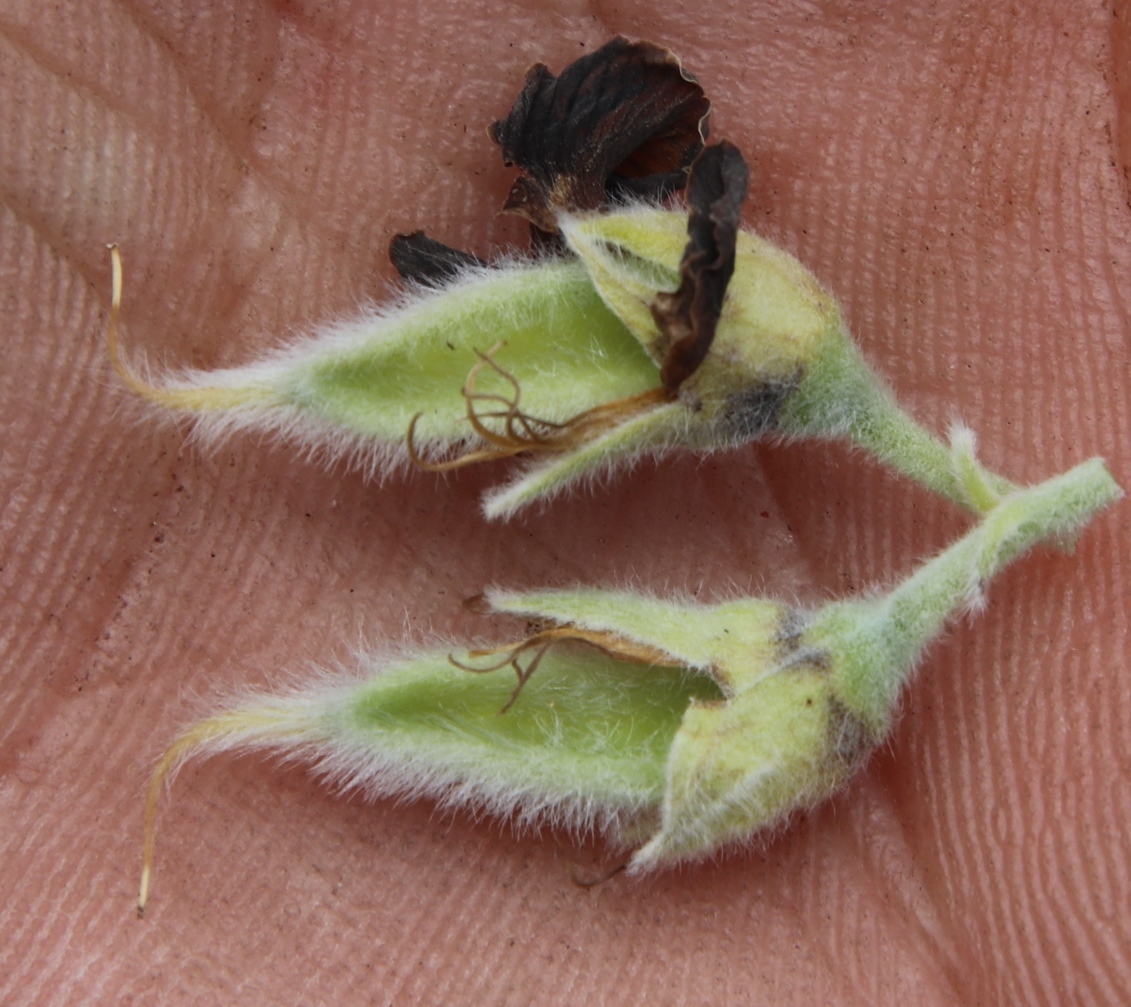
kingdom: Plantae
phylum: Tracheophyta
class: Magnoliopsida
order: Fabales
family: Fabaceae
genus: Xiphotheca
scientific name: Xiphotheca tecta
